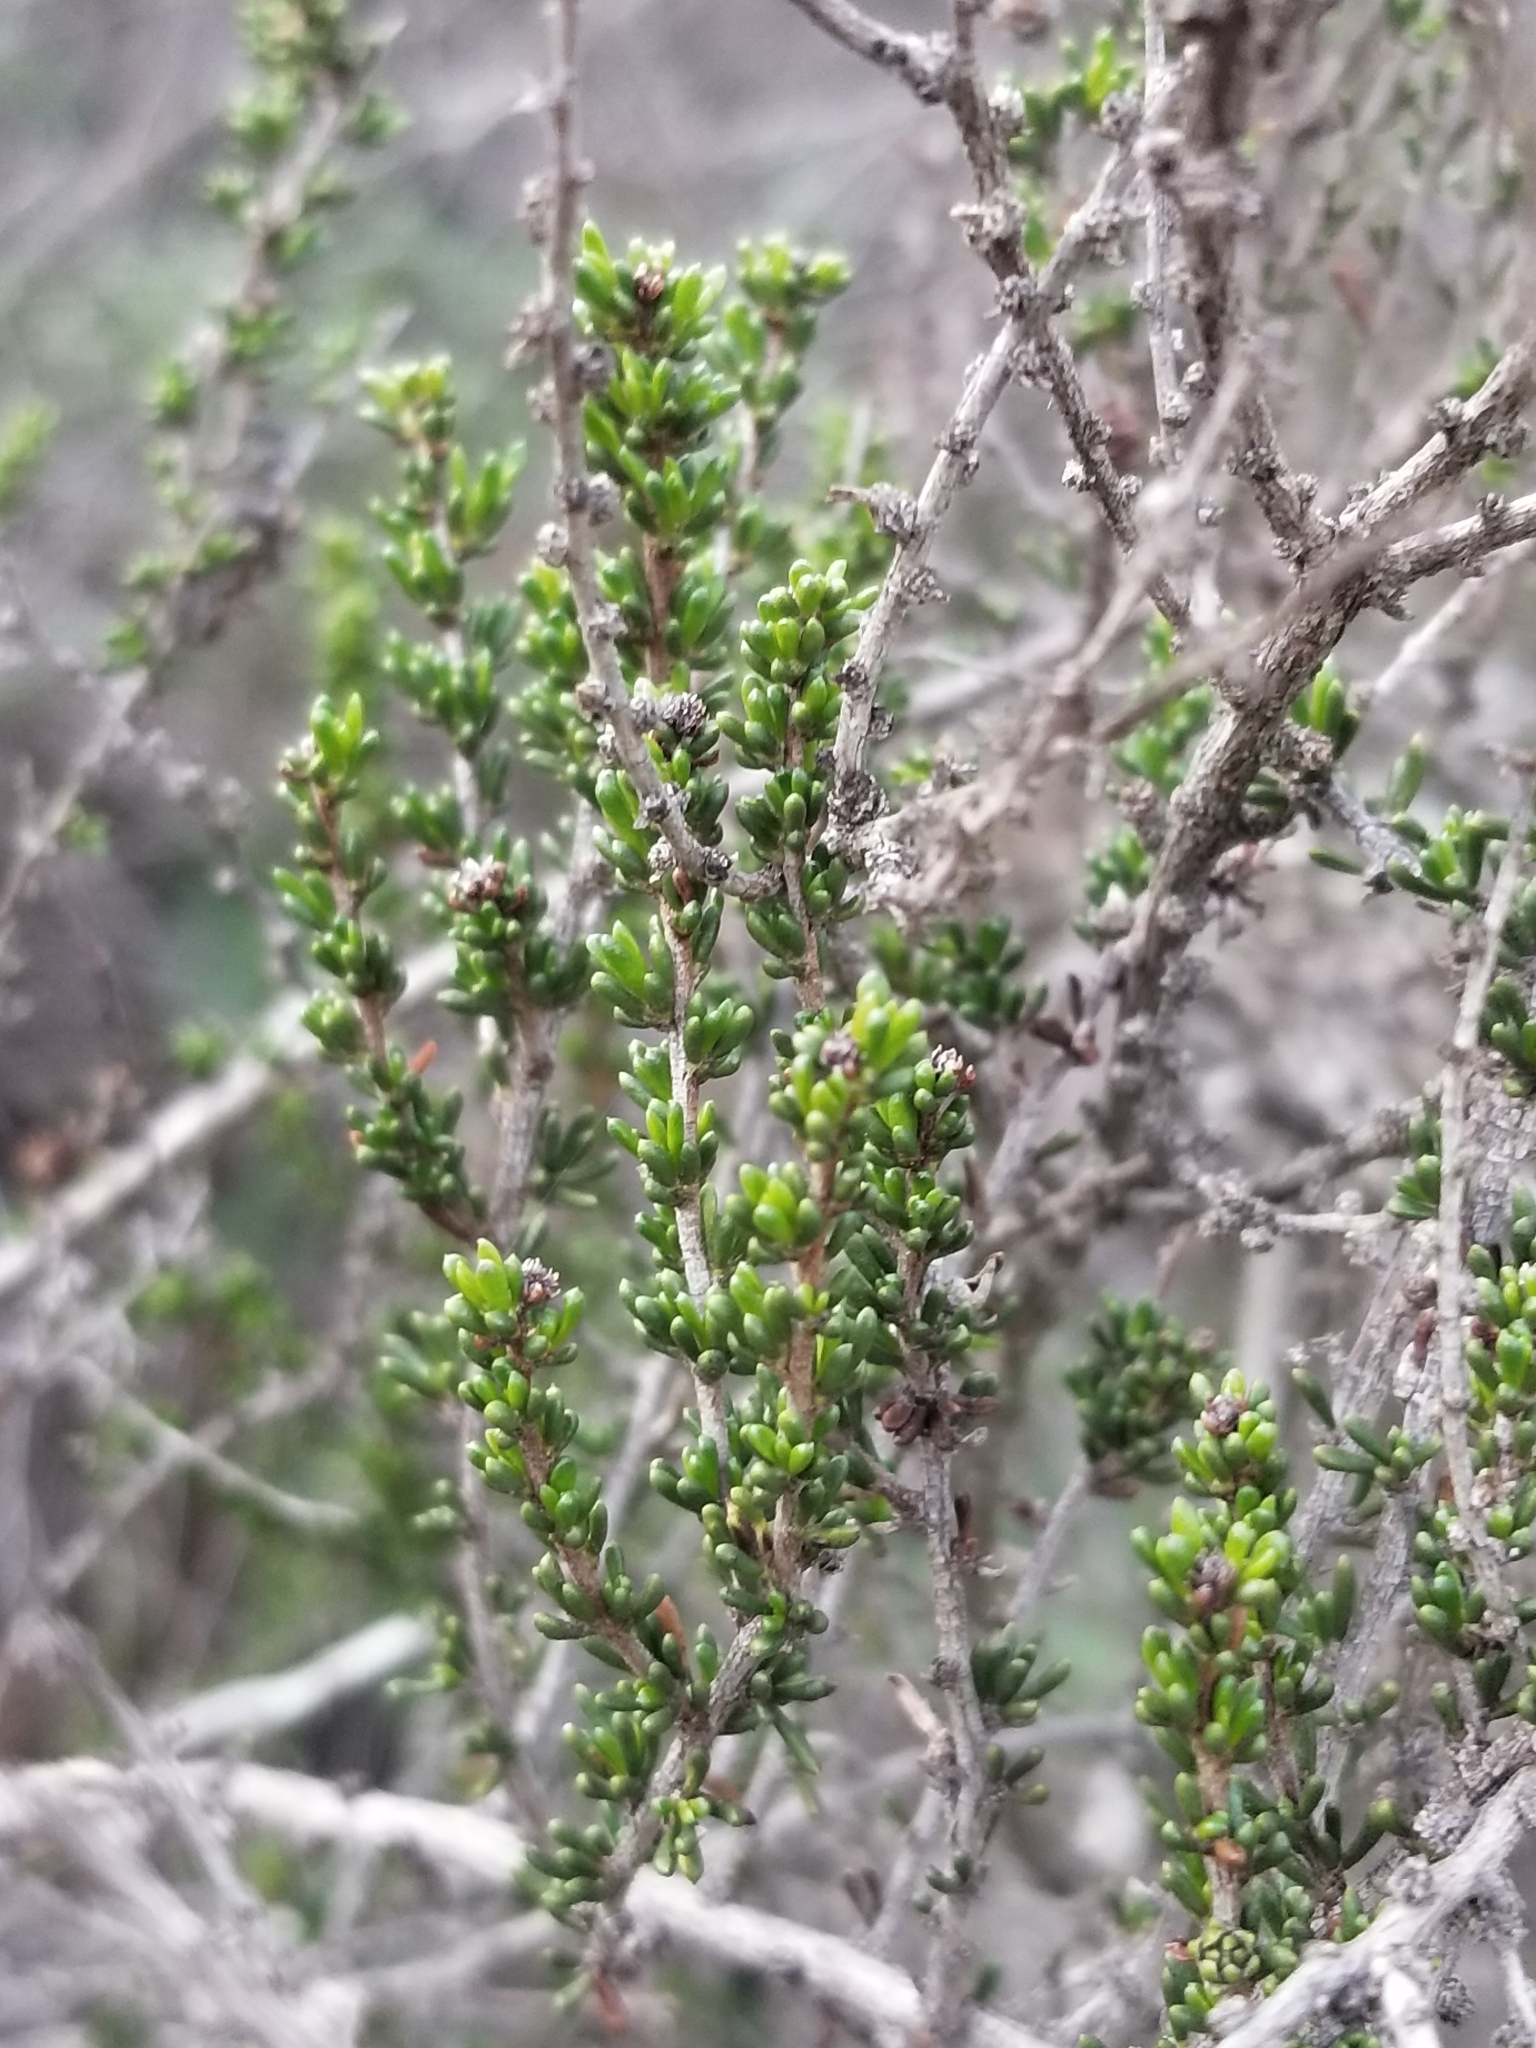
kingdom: Plantae
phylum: Tracheophyta
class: Magnoliopsida
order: Rosales
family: Rosaceae
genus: Adenostoma
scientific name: Adenostoma fasciculatum
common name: Chamise
